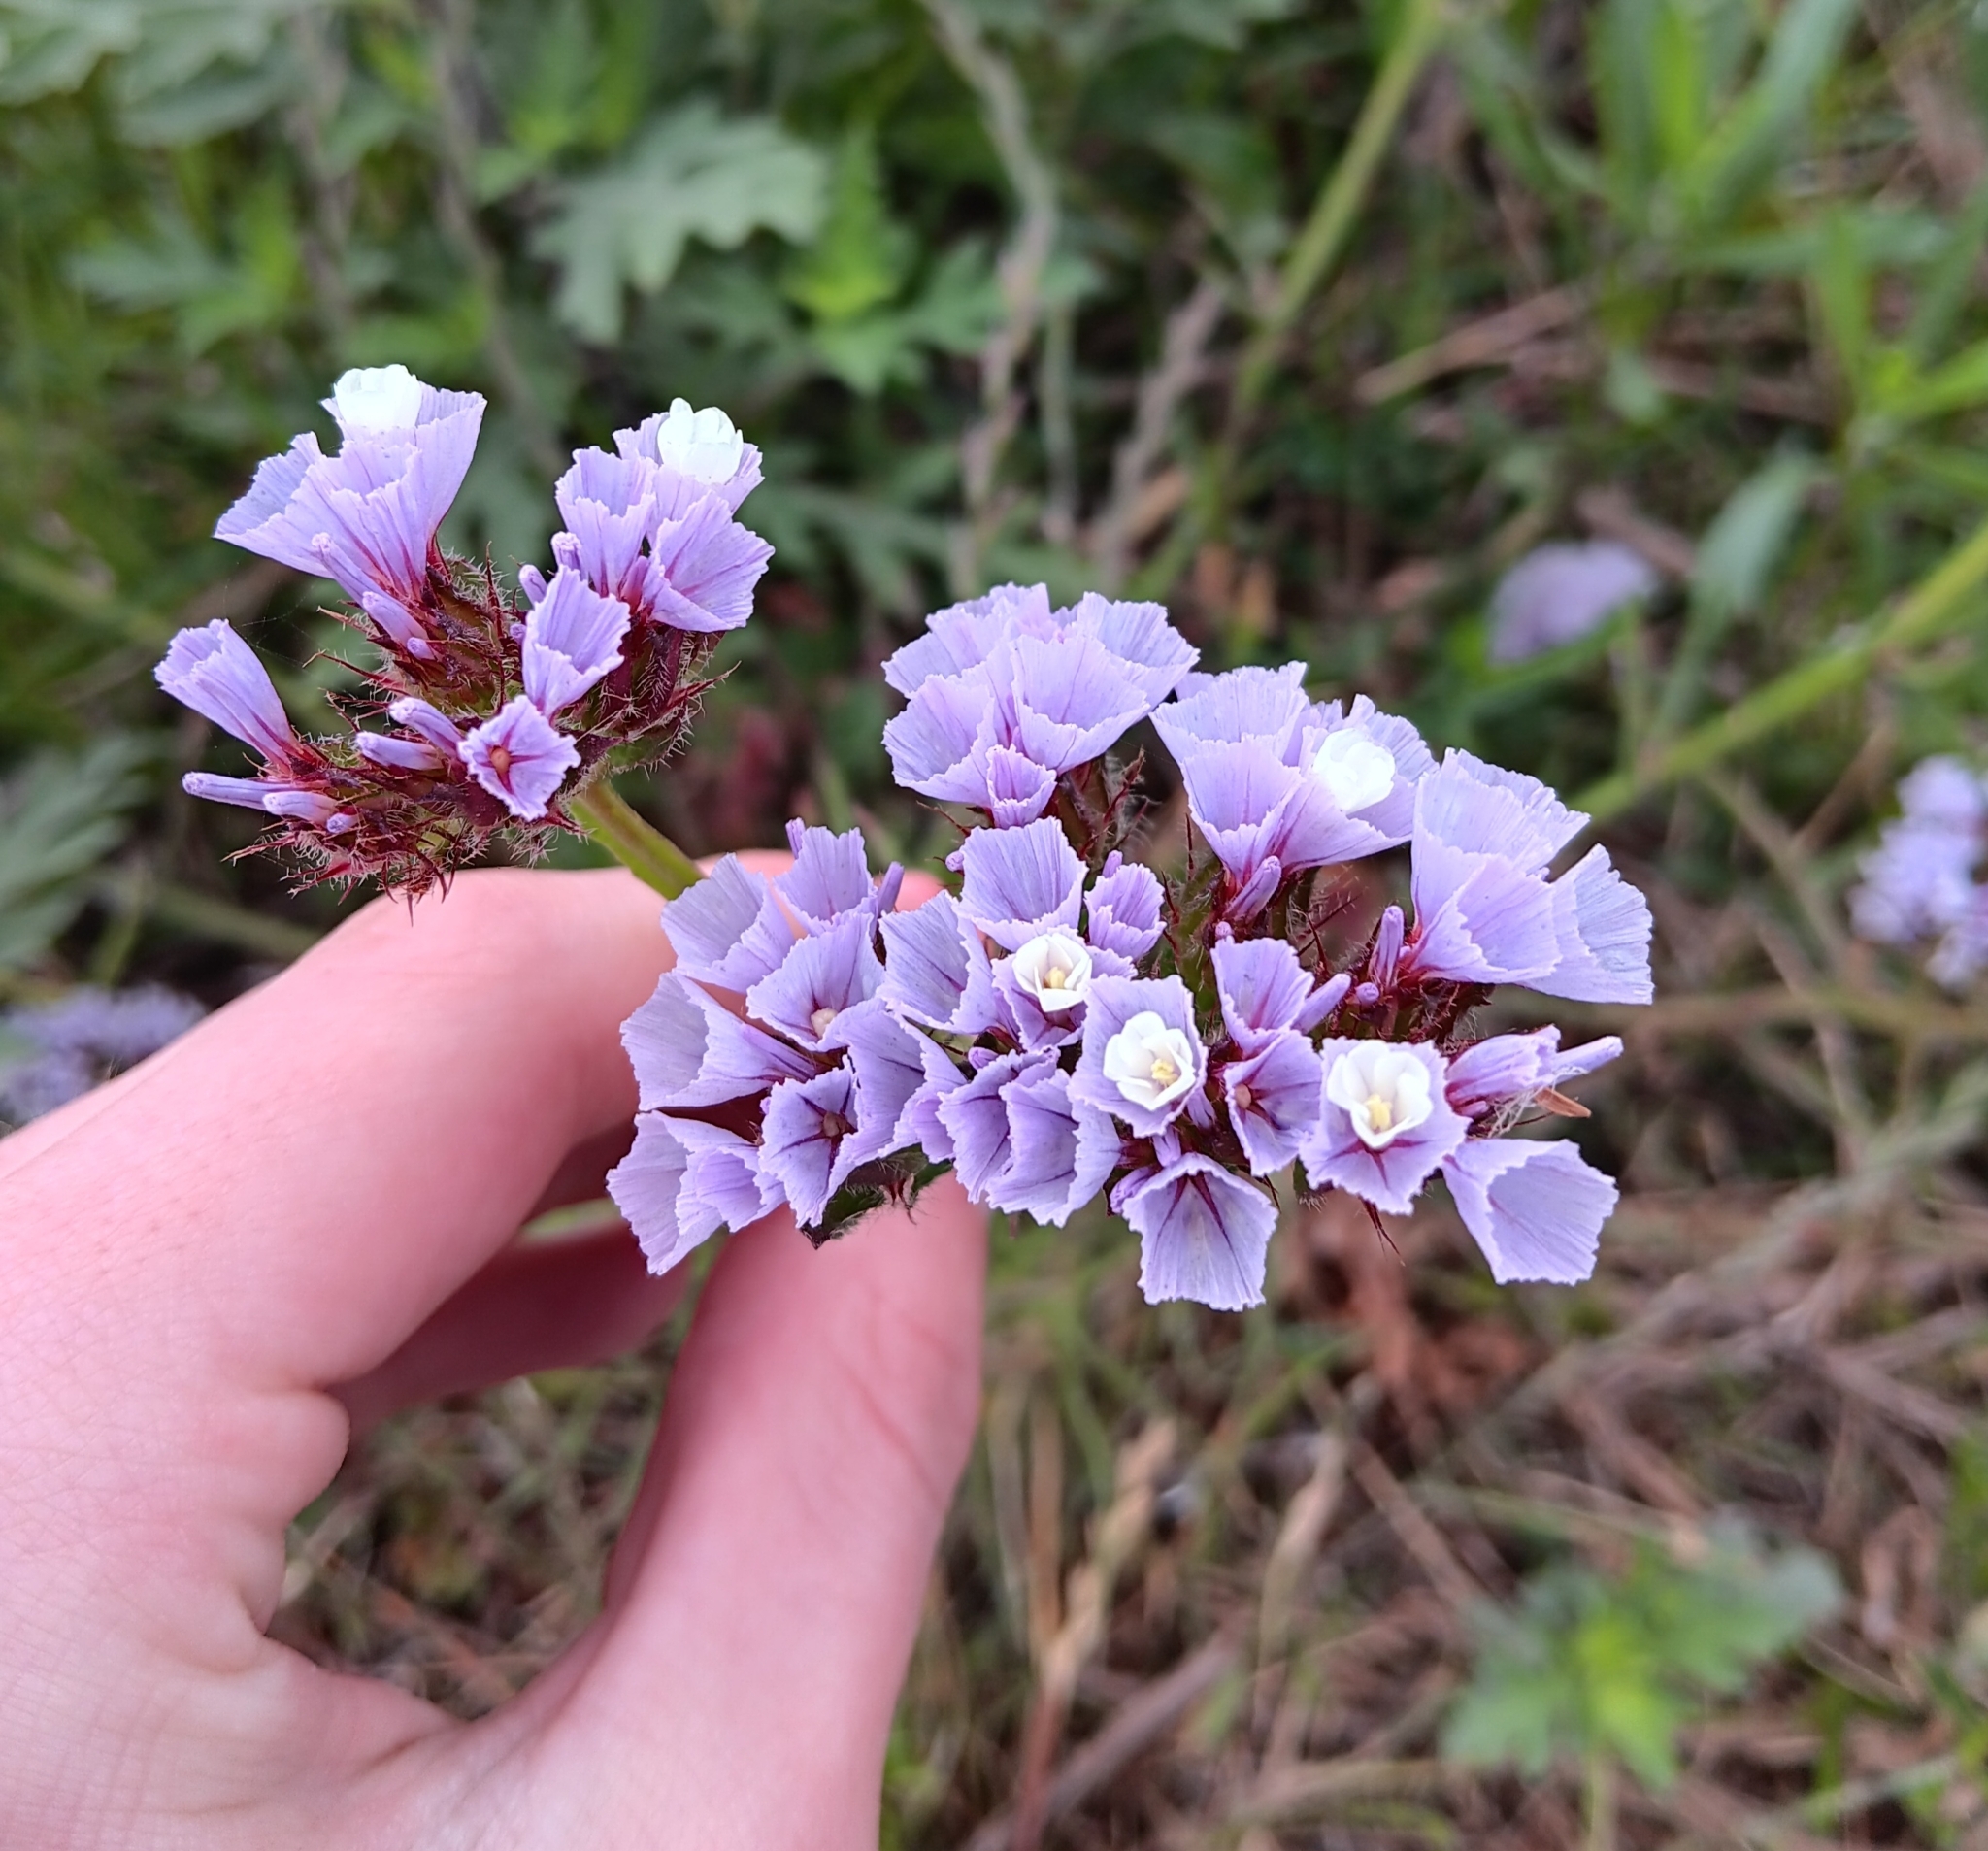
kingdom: Plantae
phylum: Tracheophyta
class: Magnoliopsida
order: Caryophyllales
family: Plumbaginaceae
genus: Limonium
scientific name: Limonium sinuatum
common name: Statice
